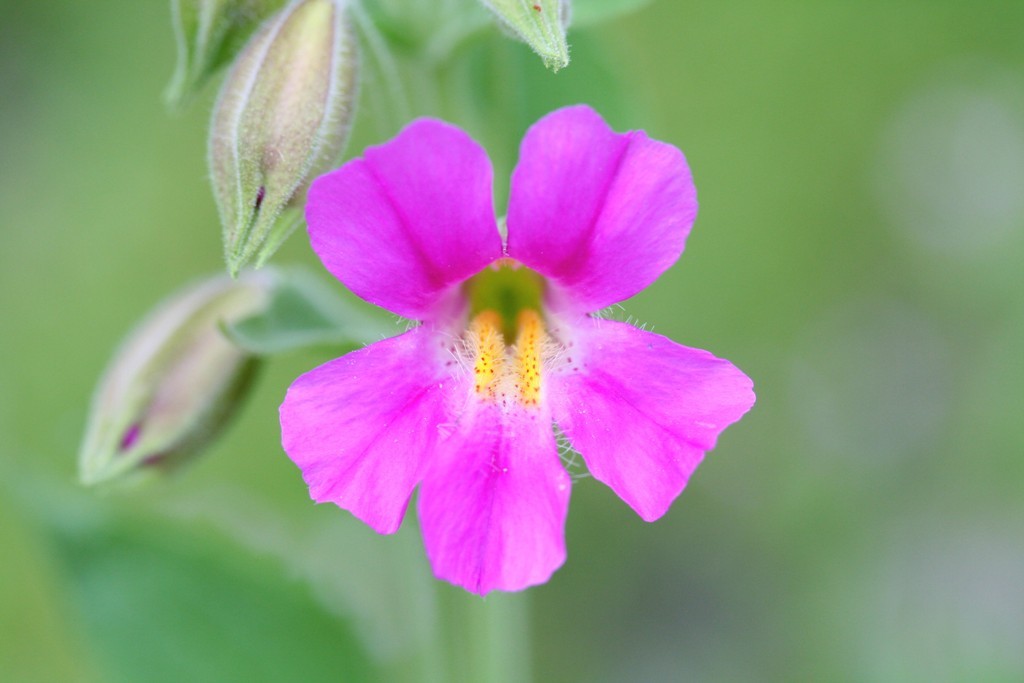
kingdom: Plantae
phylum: Tracheophyta
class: Magnoliopsida
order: Lamiales
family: Phrymaceae
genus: Erythranthe
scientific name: Erythranthe lewisii
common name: Lewis's monkey-flower
